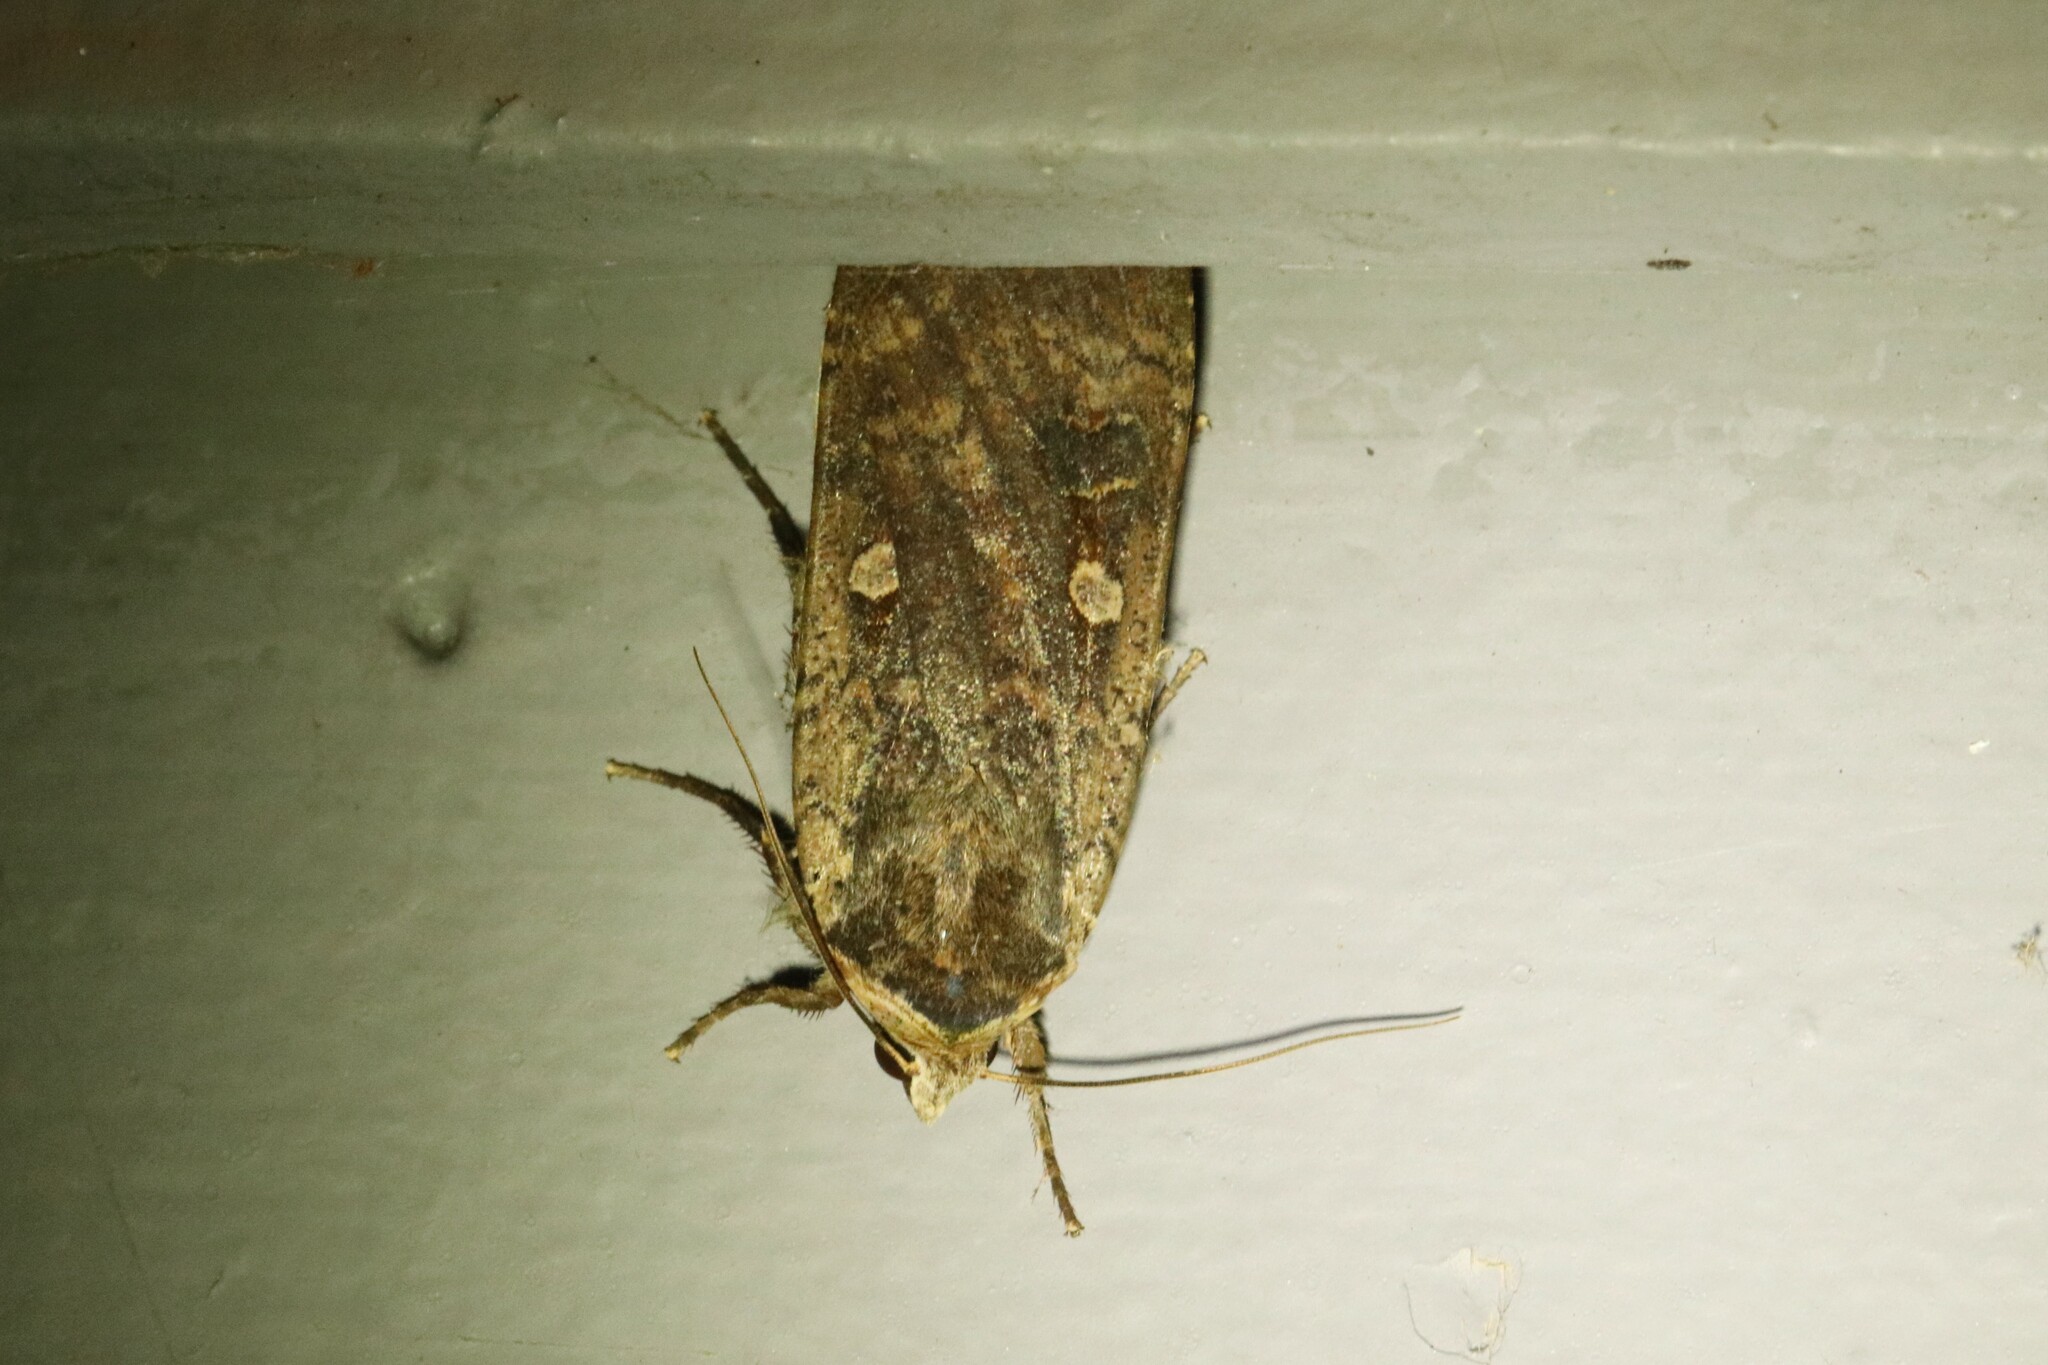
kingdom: Animalia
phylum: Arthropoda
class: Insecta
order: Lepidoptera
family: Noctuidae
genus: Noctua
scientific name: Noctua pronuba
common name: Large yellow underwing
